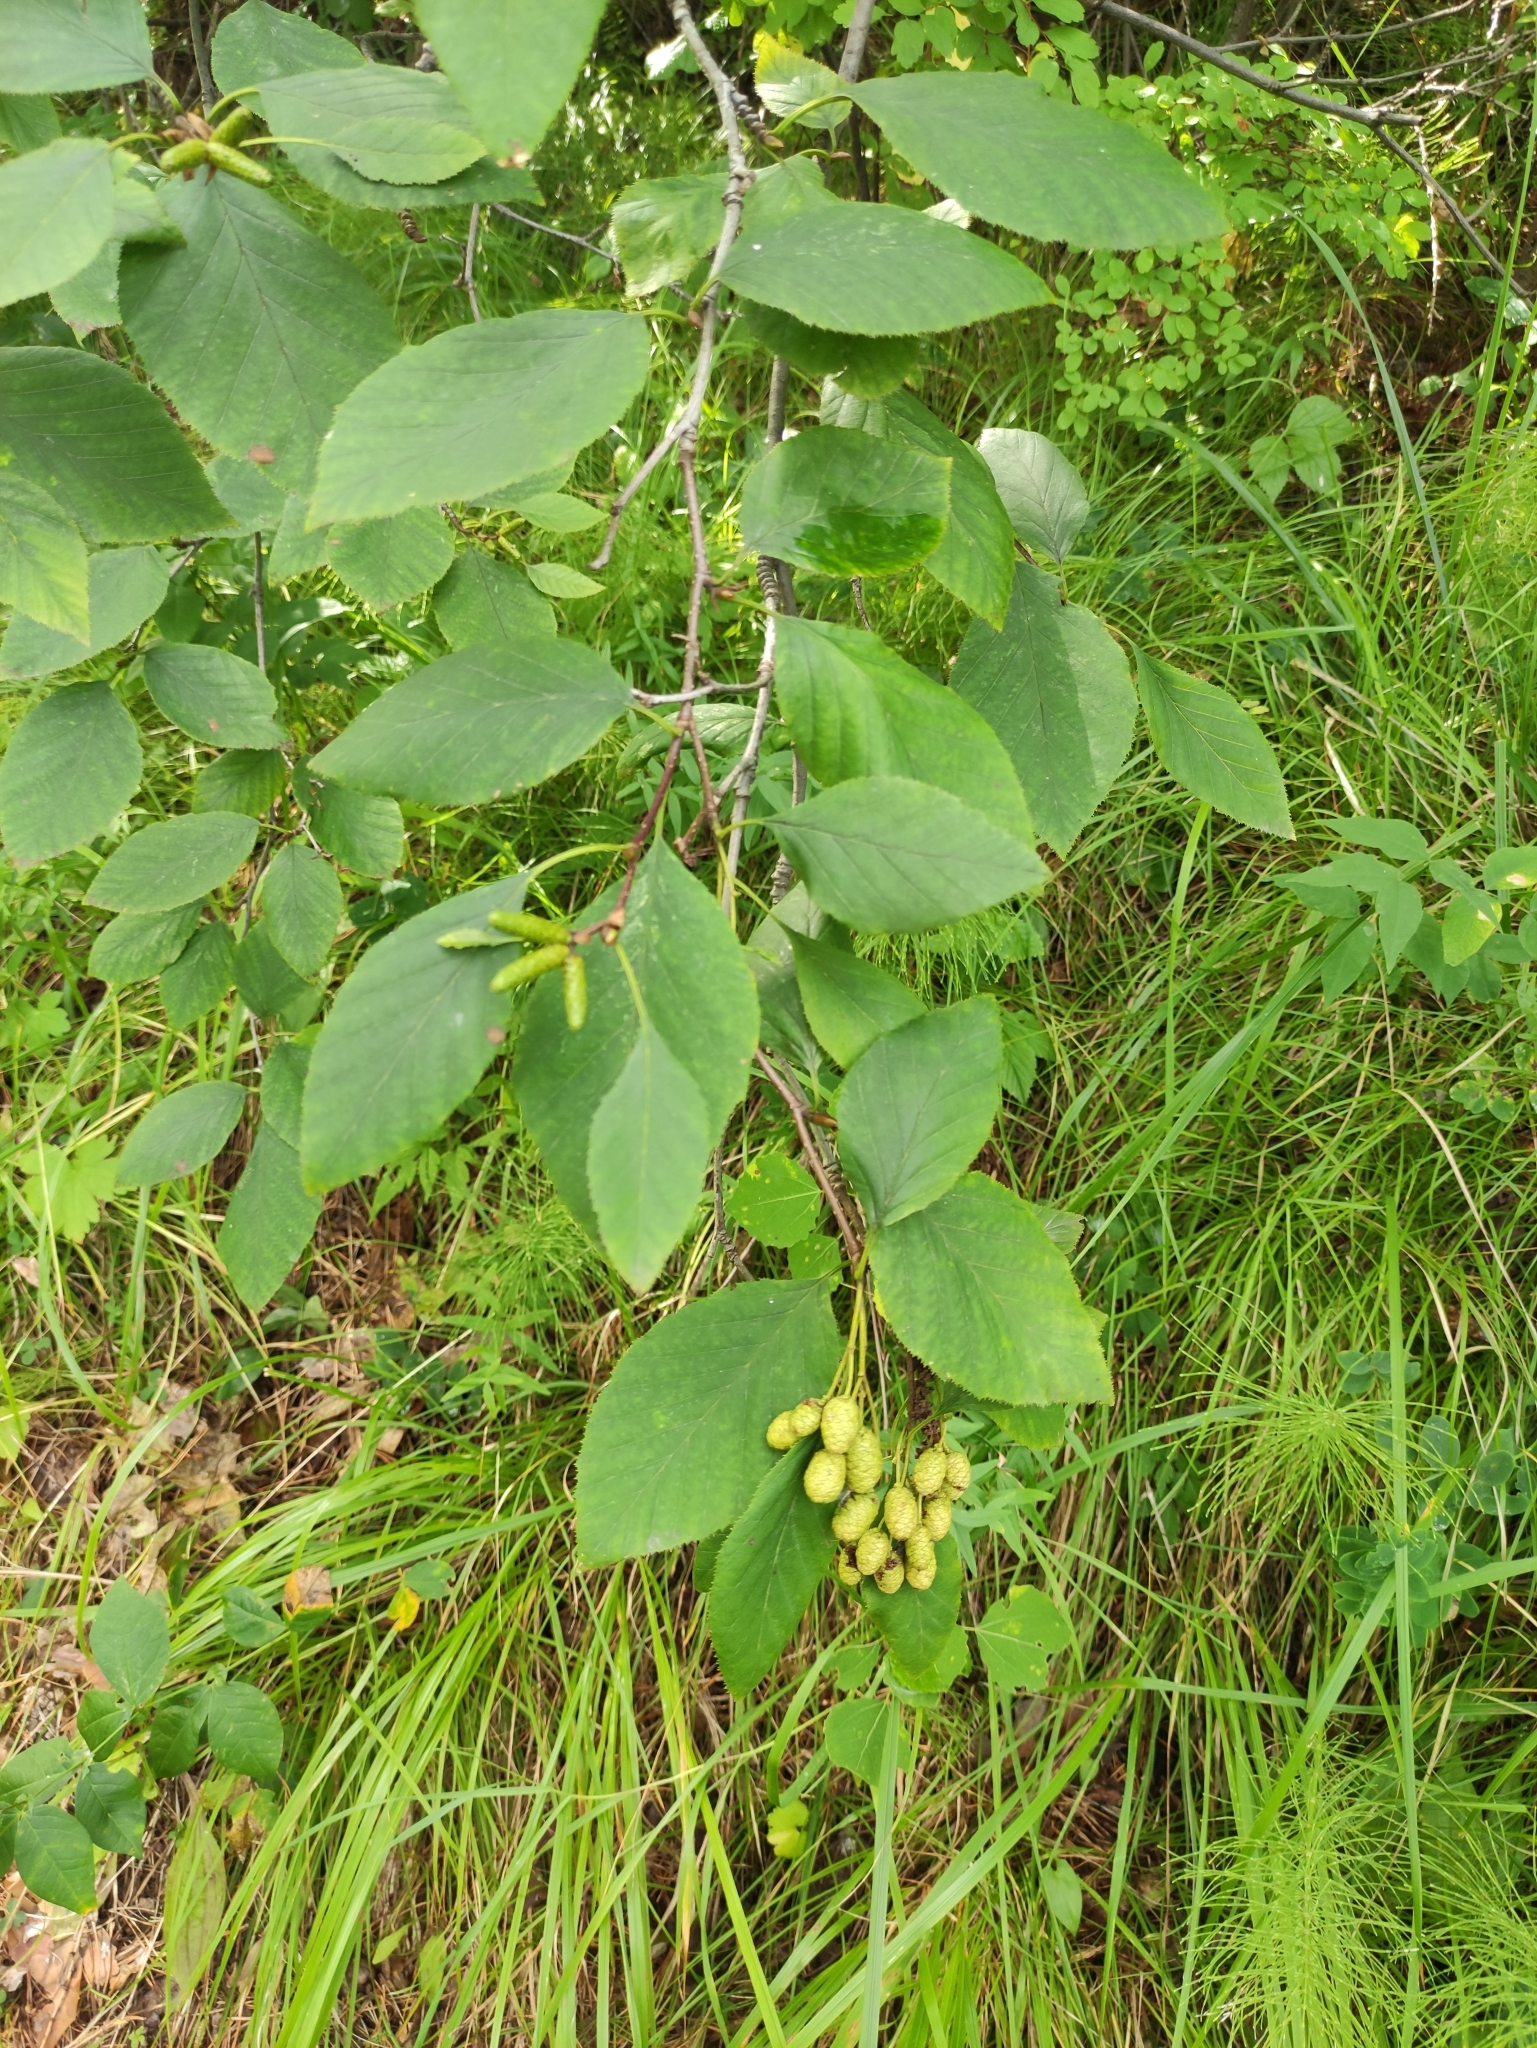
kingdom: Plantae
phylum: Tracheophyta
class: Magnoliopsida
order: Fagales
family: Betulaceae
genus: Alnus
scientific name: Alnus alnobetula
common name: Green alder
